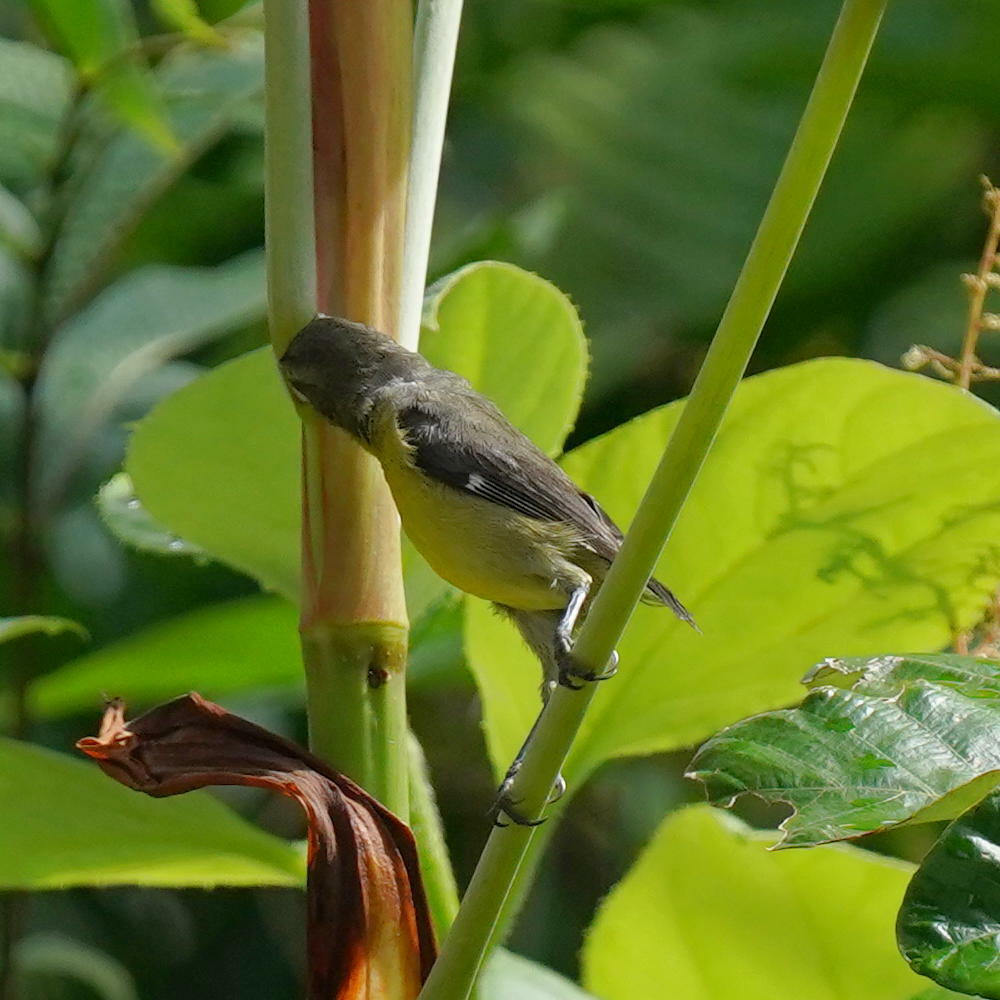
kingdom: Animalia
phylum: Chordata
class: Aves
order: Passeriformes
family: Thraupidae
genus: Coereba
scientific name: Coereba flaveola
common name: Bananaquit
